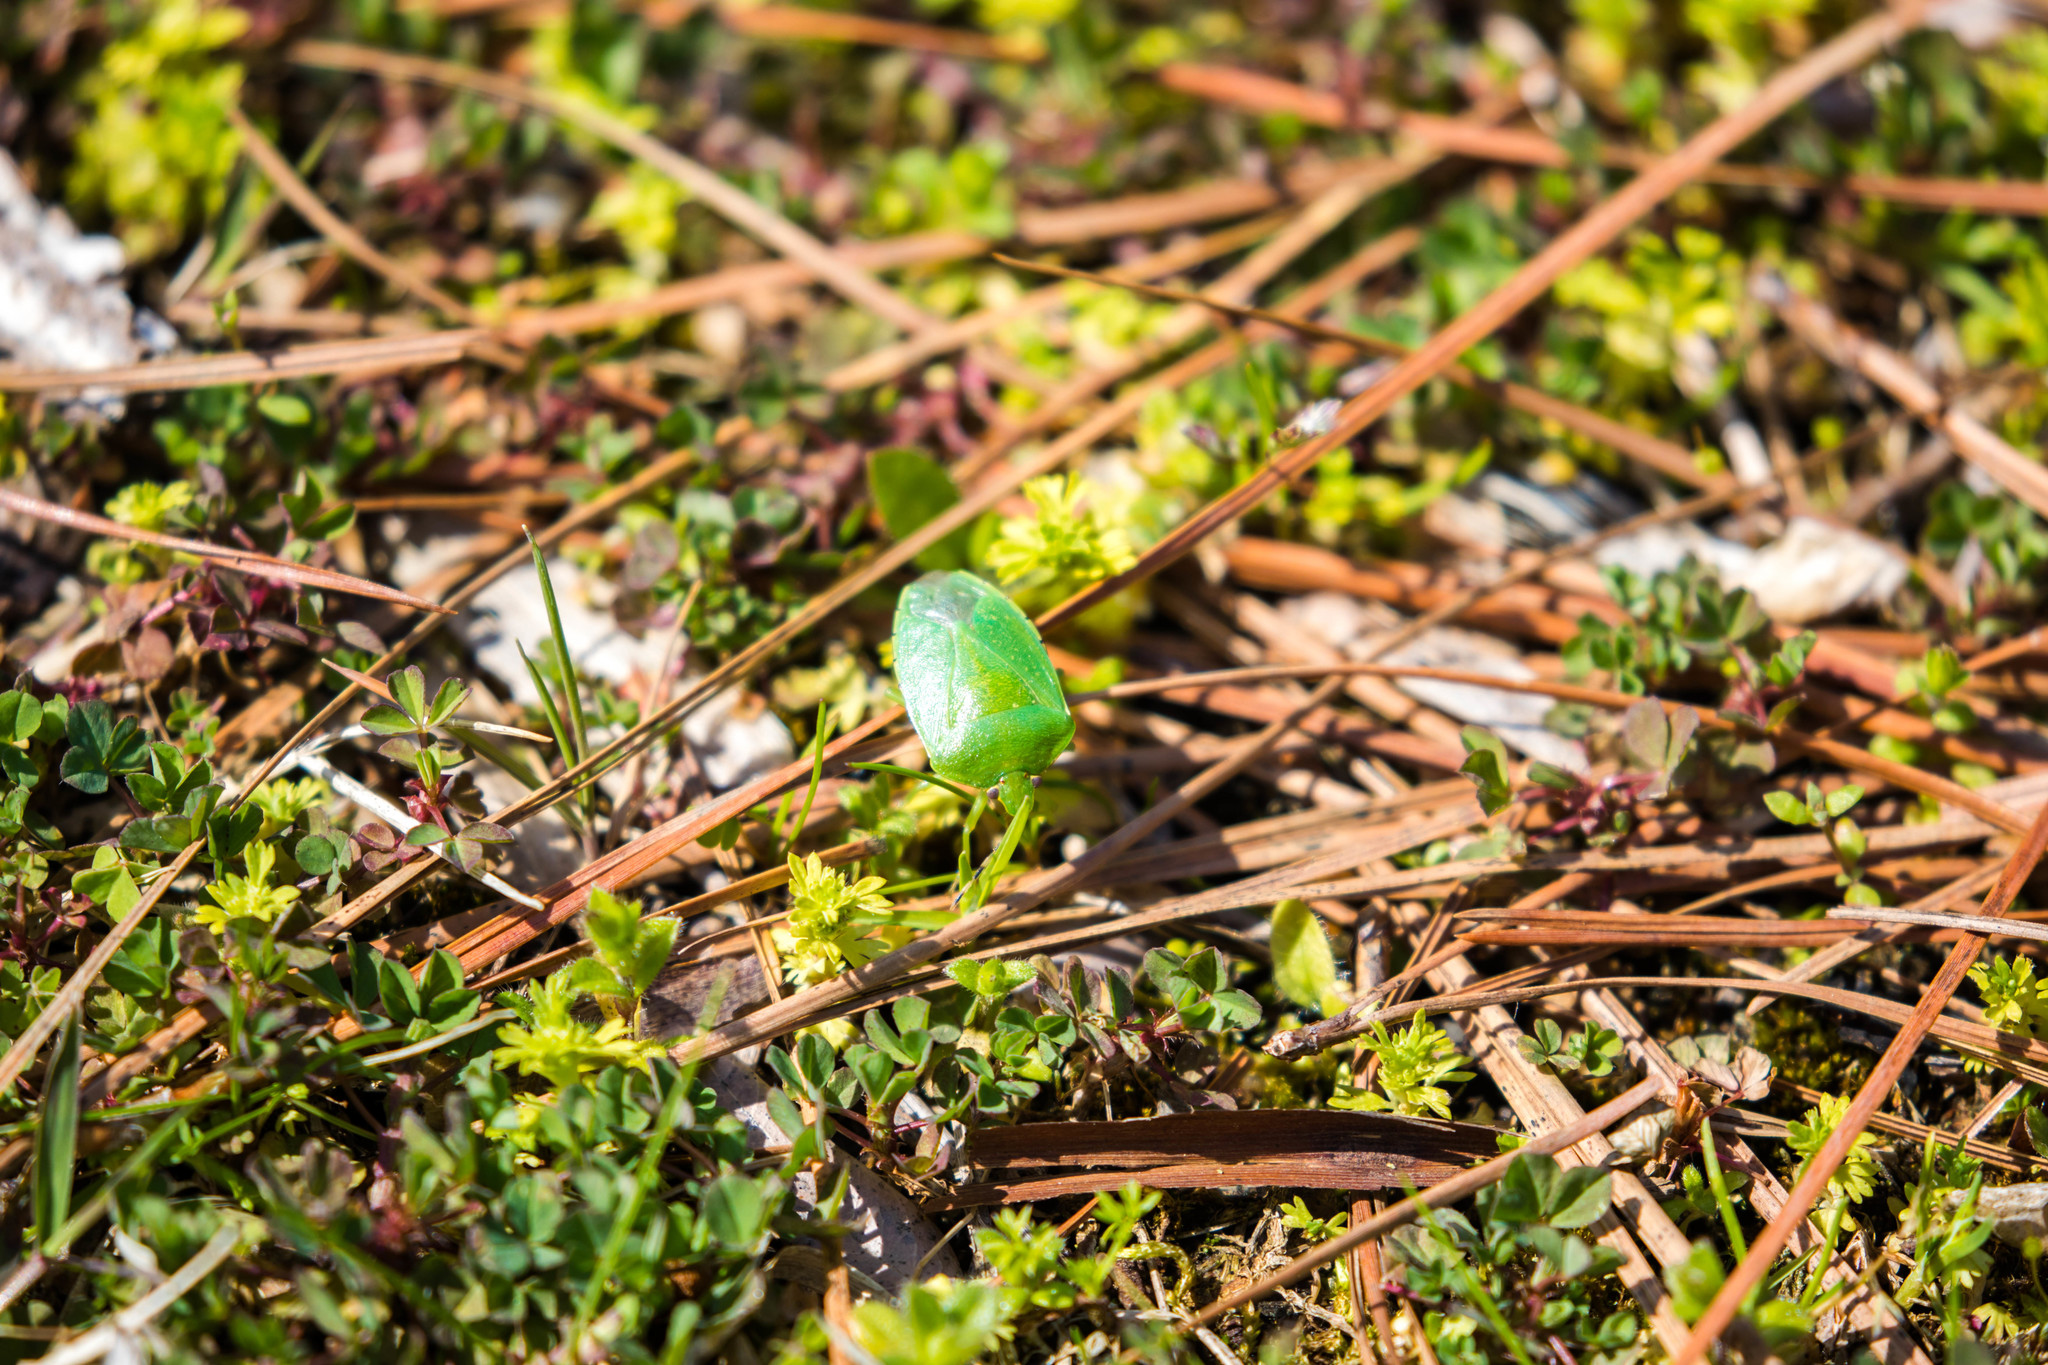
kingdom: Animalia
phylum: Arthropoda
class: Insecta
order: Hemiptera
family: Pentatomidae
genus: Chinavia
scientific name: Chinavia hilaris
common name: Green stink bug
